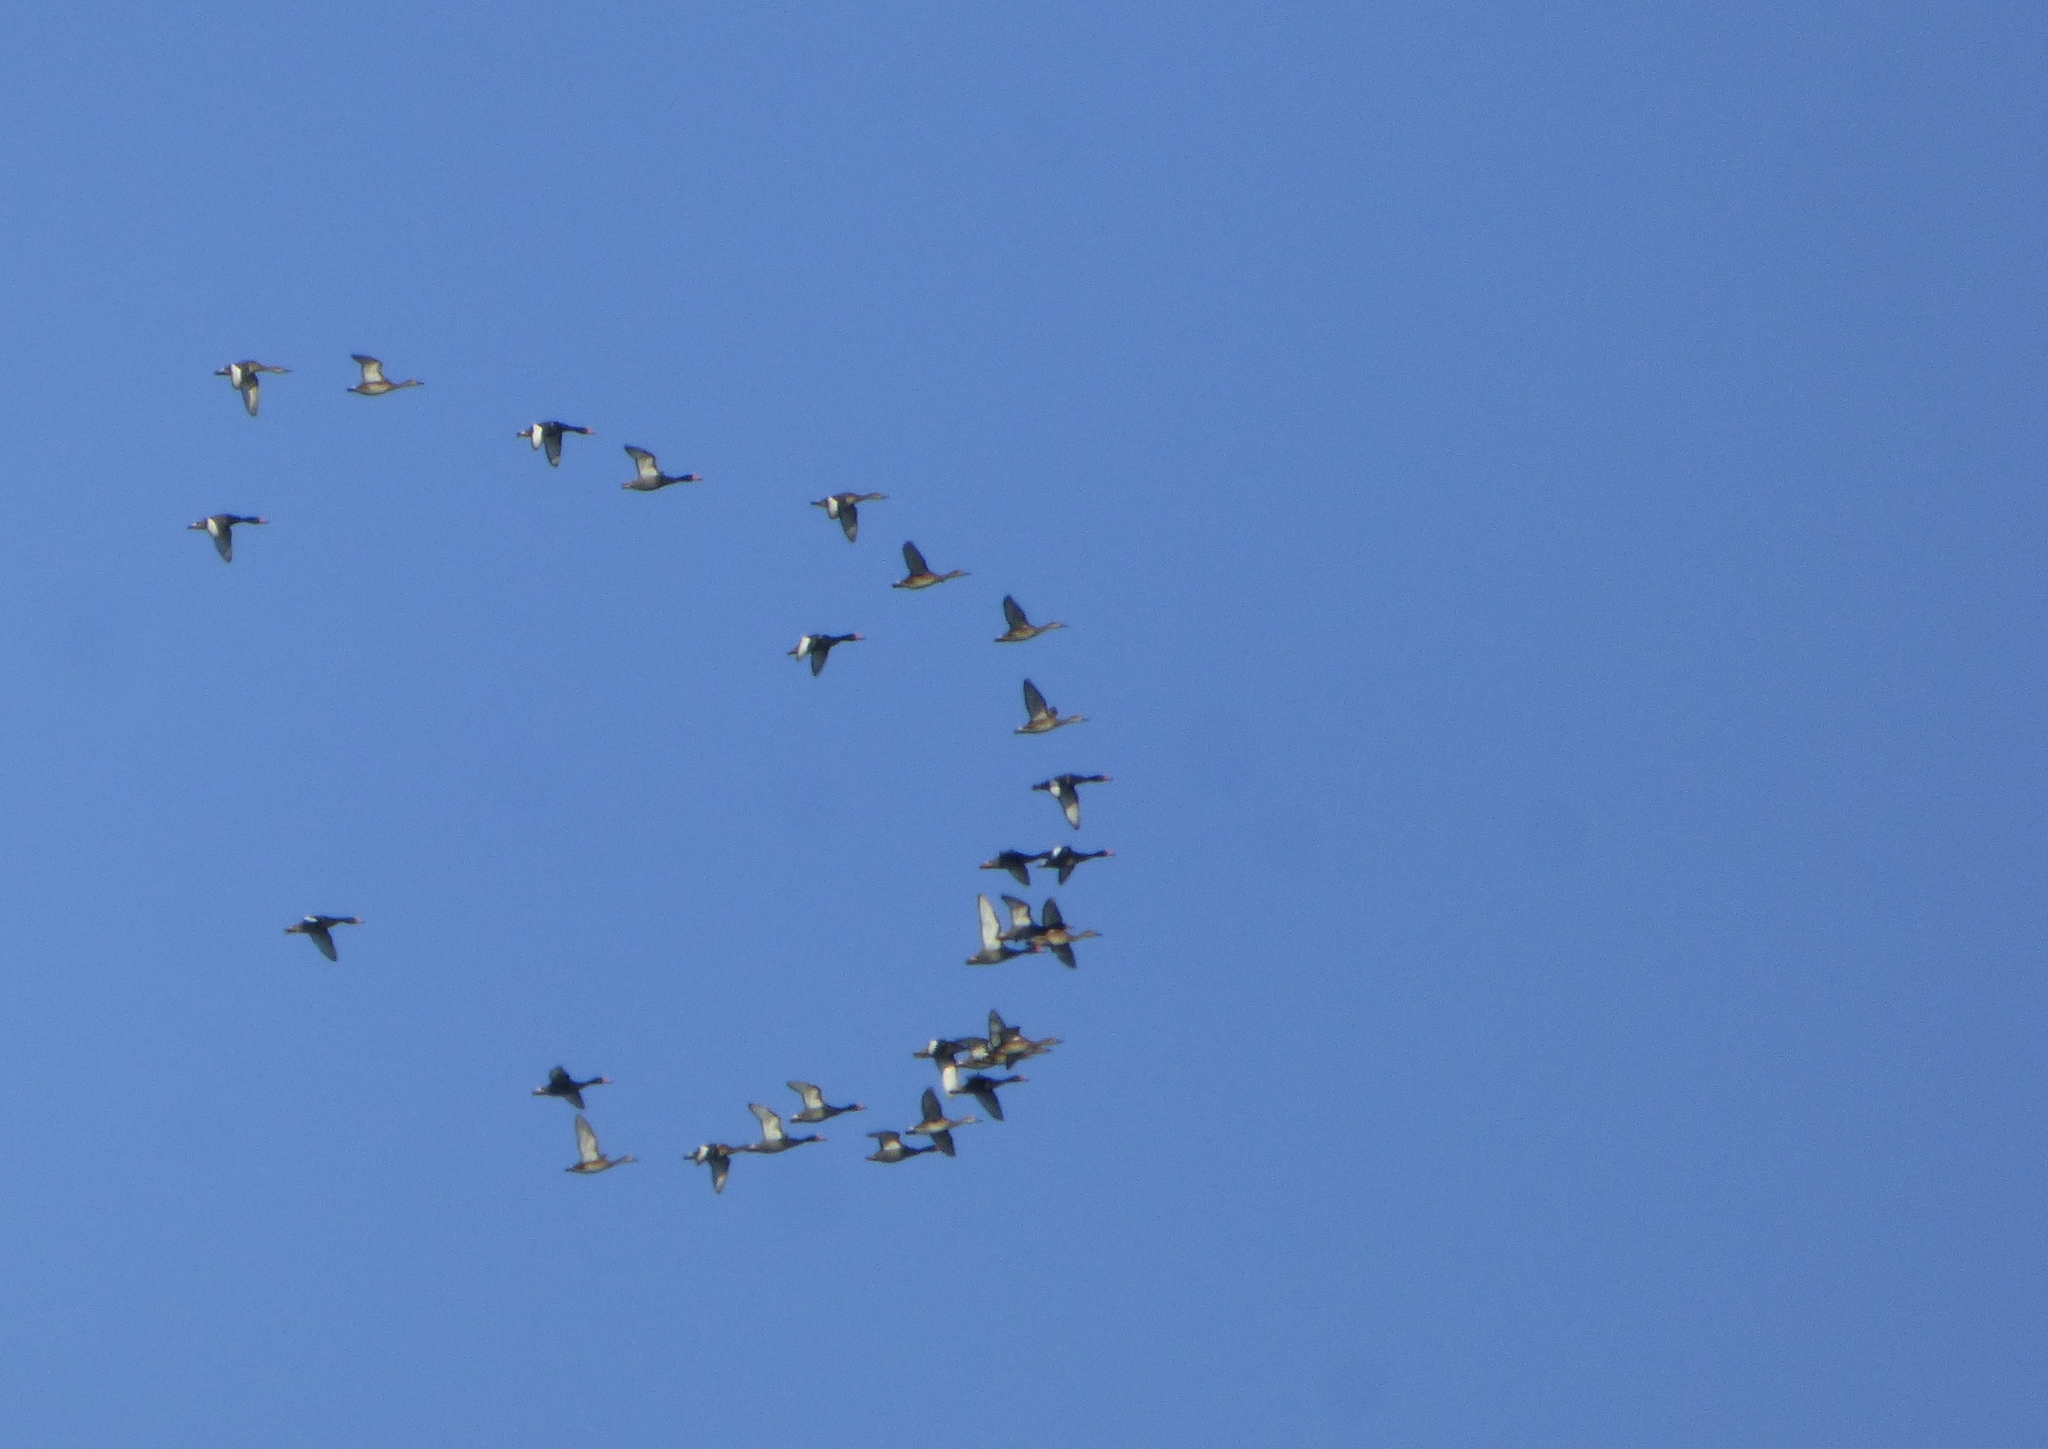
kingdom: Animalia
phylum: Chordata
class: Aves
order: Anseriformes
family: Anatidae
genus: Netta
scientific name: Netta peposaca
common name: Rosy-billed pochard
